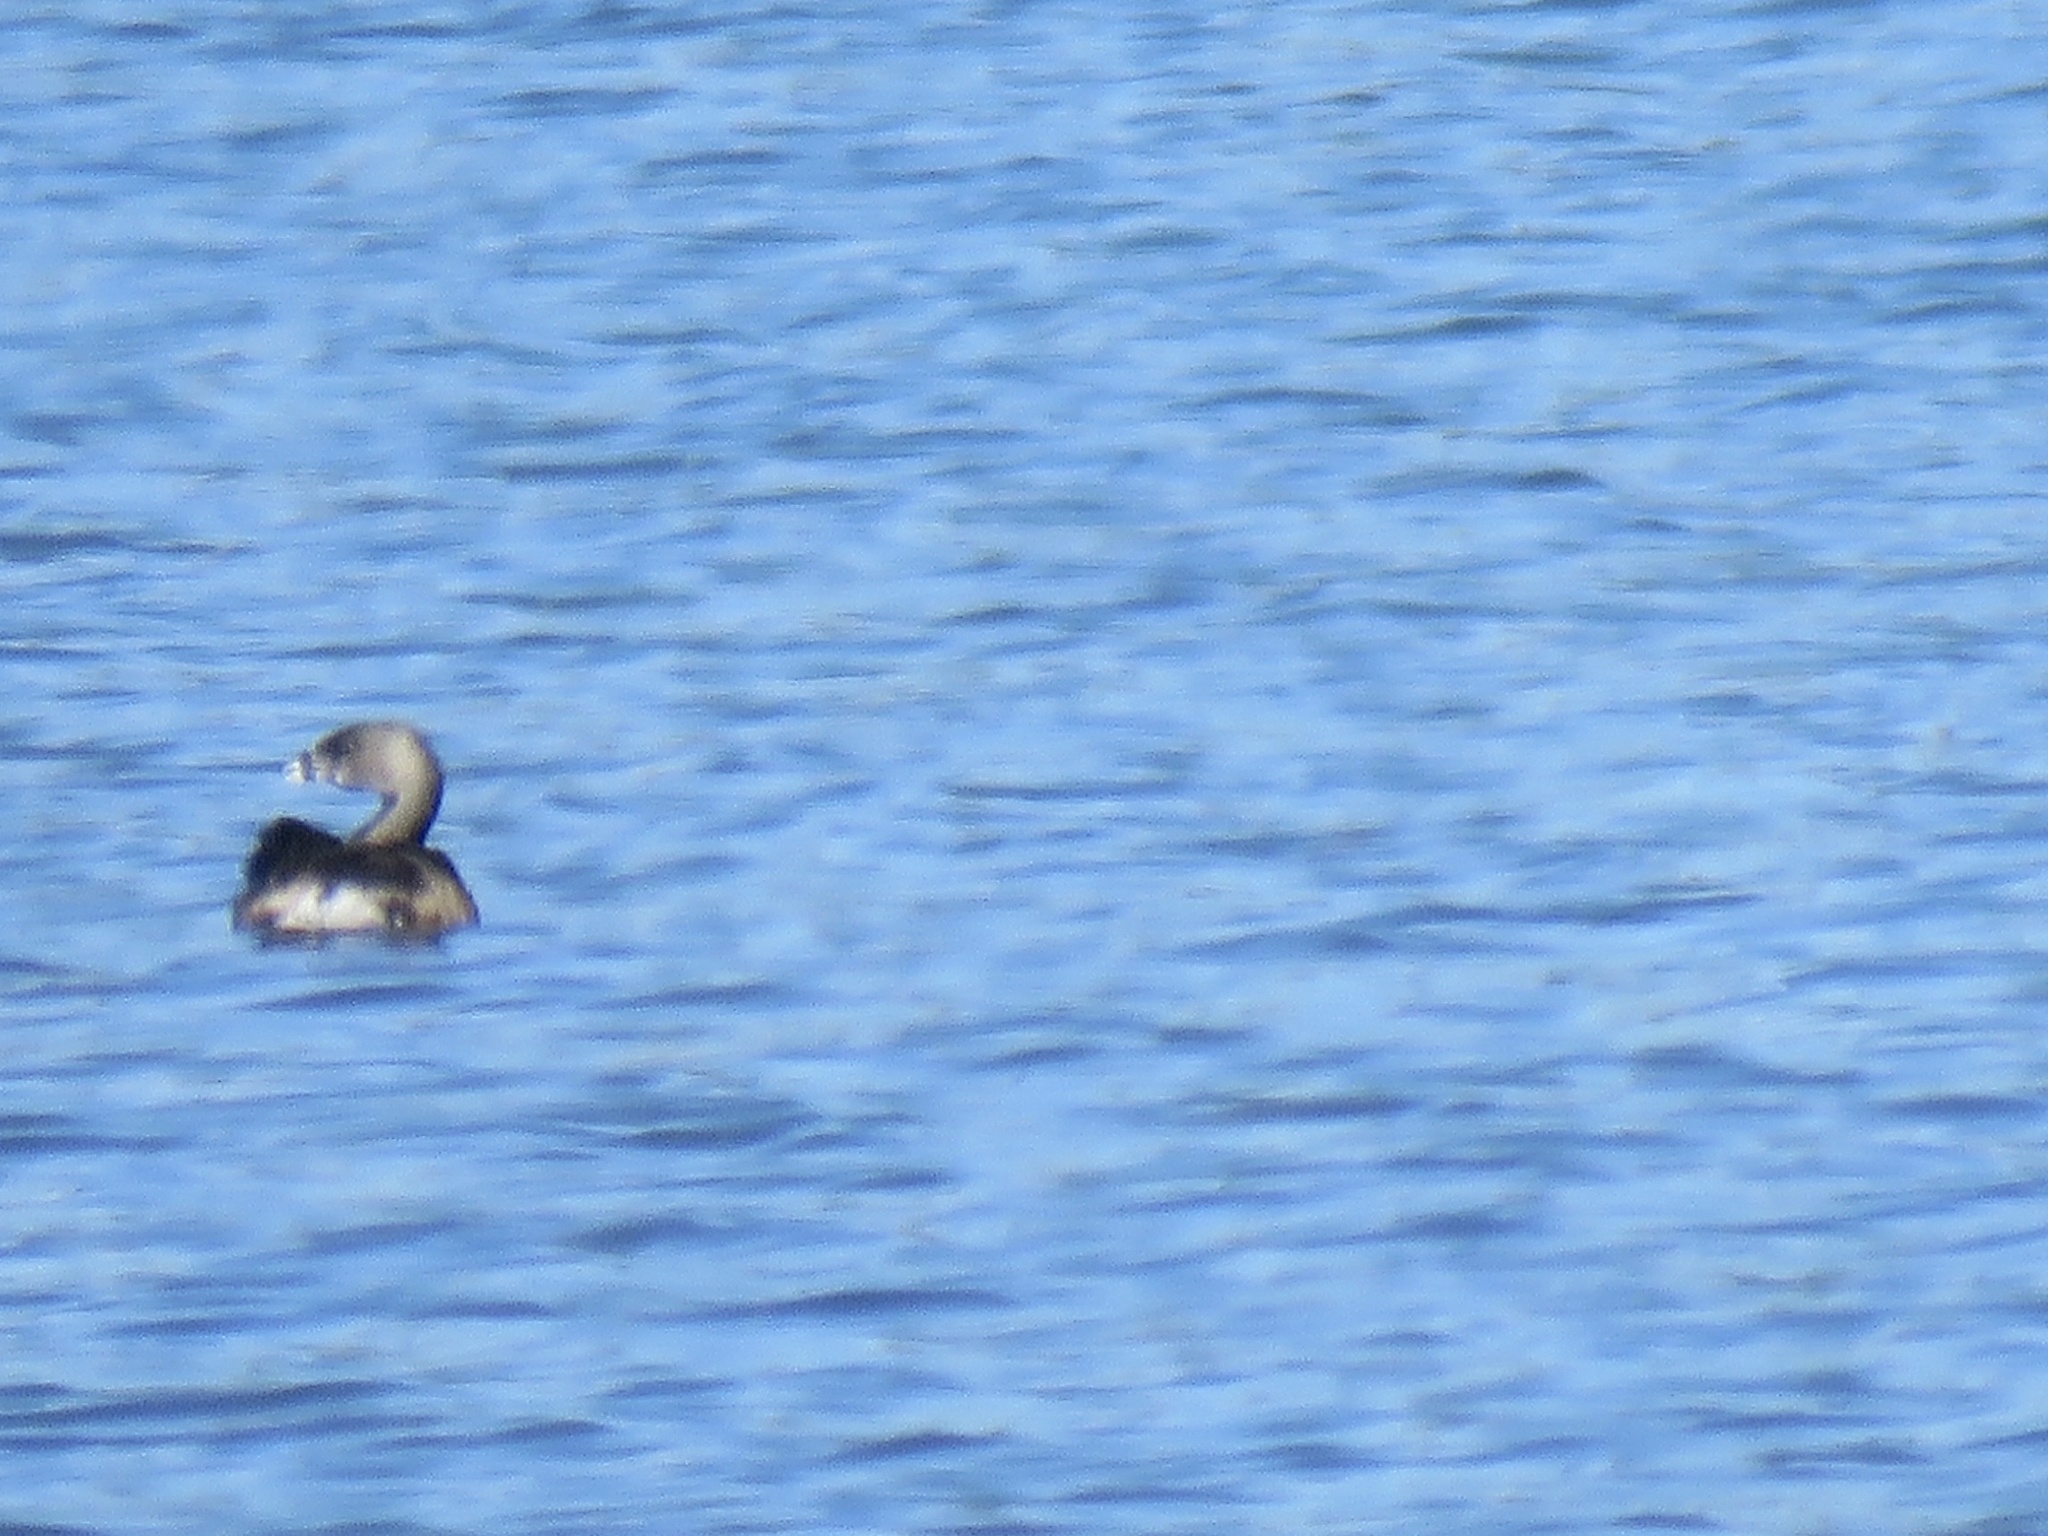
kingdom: Animalia
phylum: Chordata
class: Aves
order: Podicipediformes
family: Podicipedidae
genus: Podilymbus
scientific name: Podilymbus podiceps
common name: Pied-billed grebe
